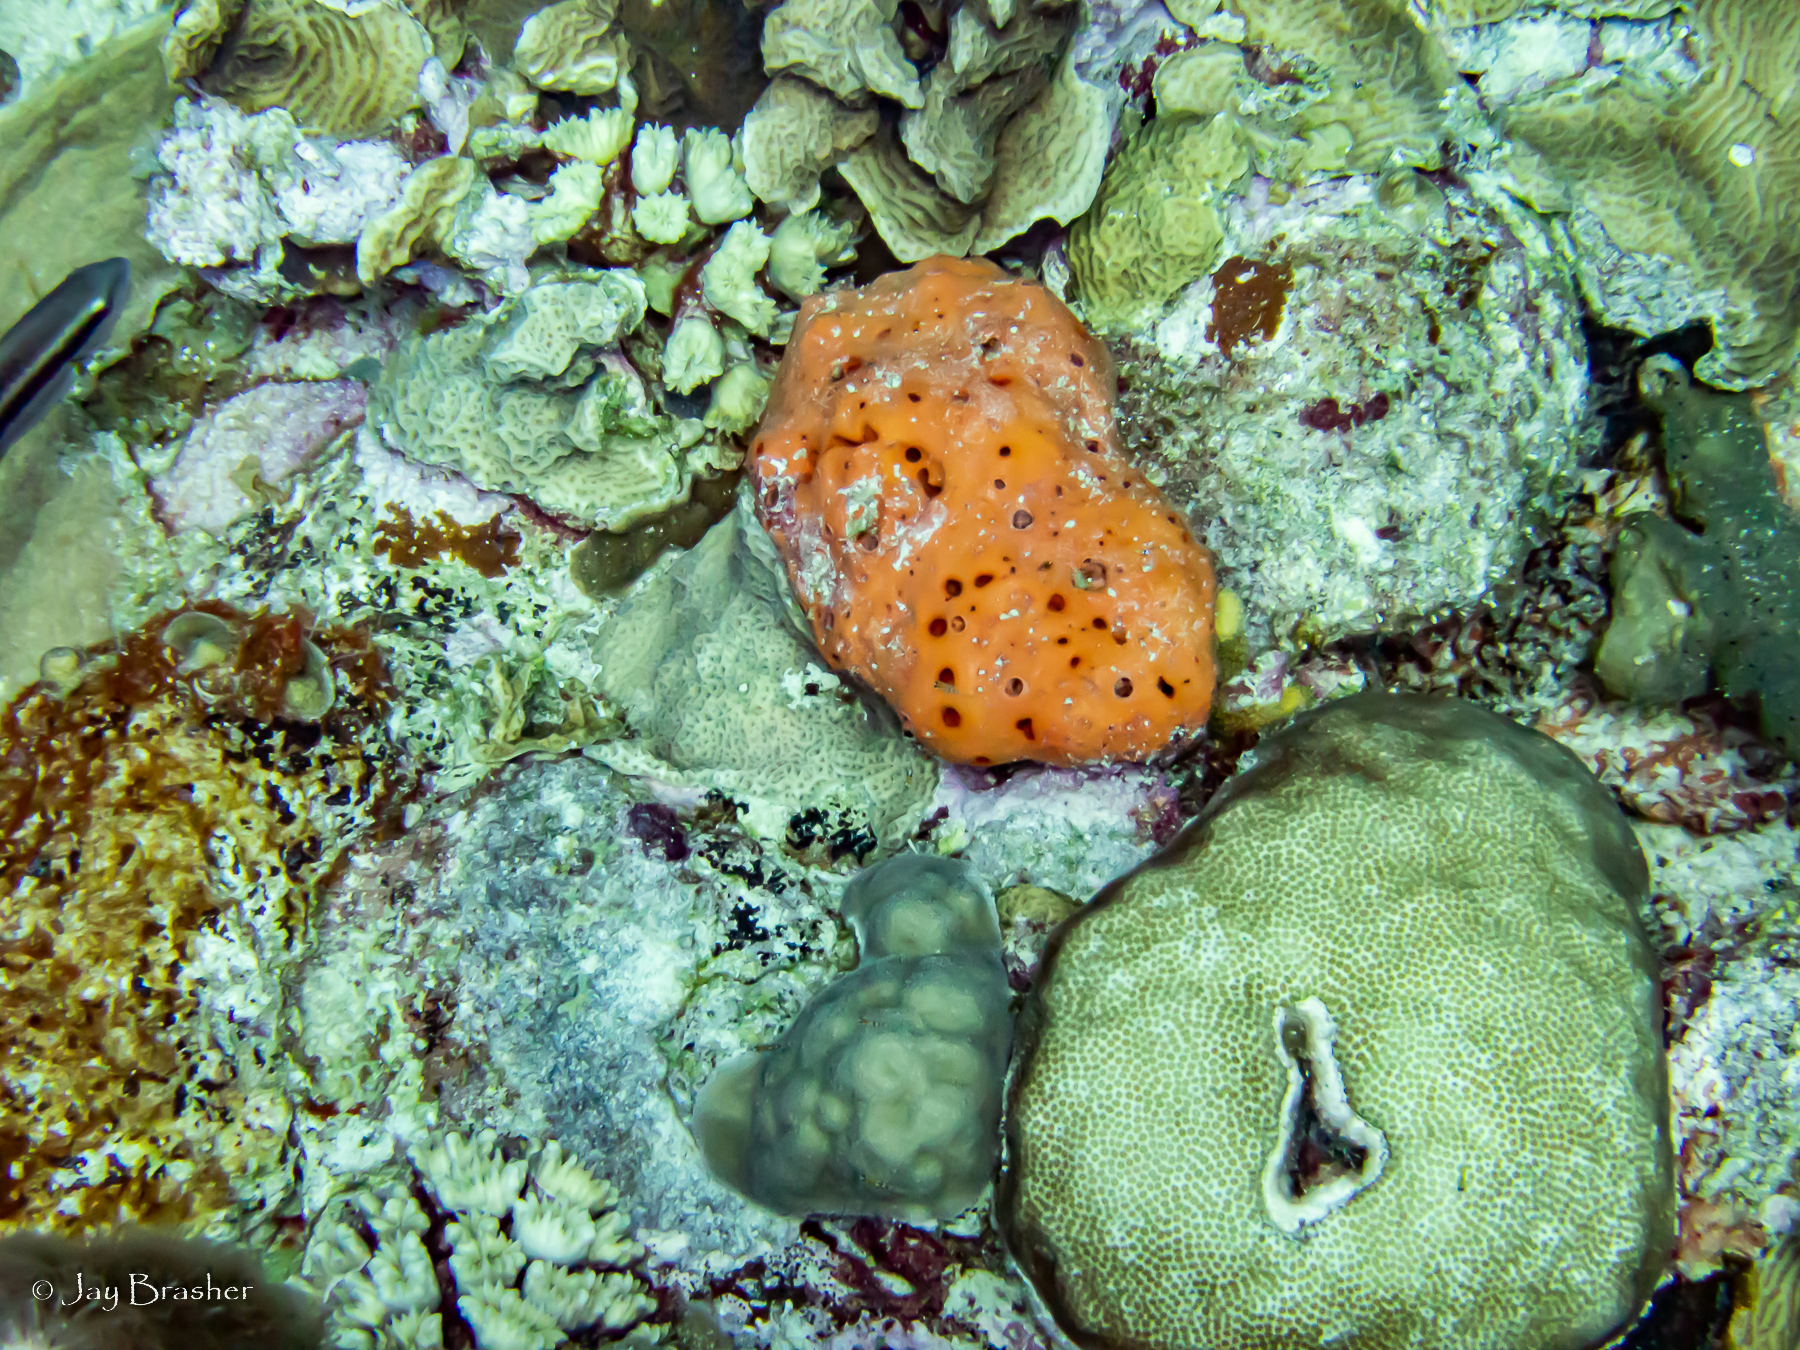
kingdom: Animalia
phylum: Porifera
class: Demospongiae
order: Agelasida
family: Agelasidae
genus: Agelas
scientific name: Agelas sventres
